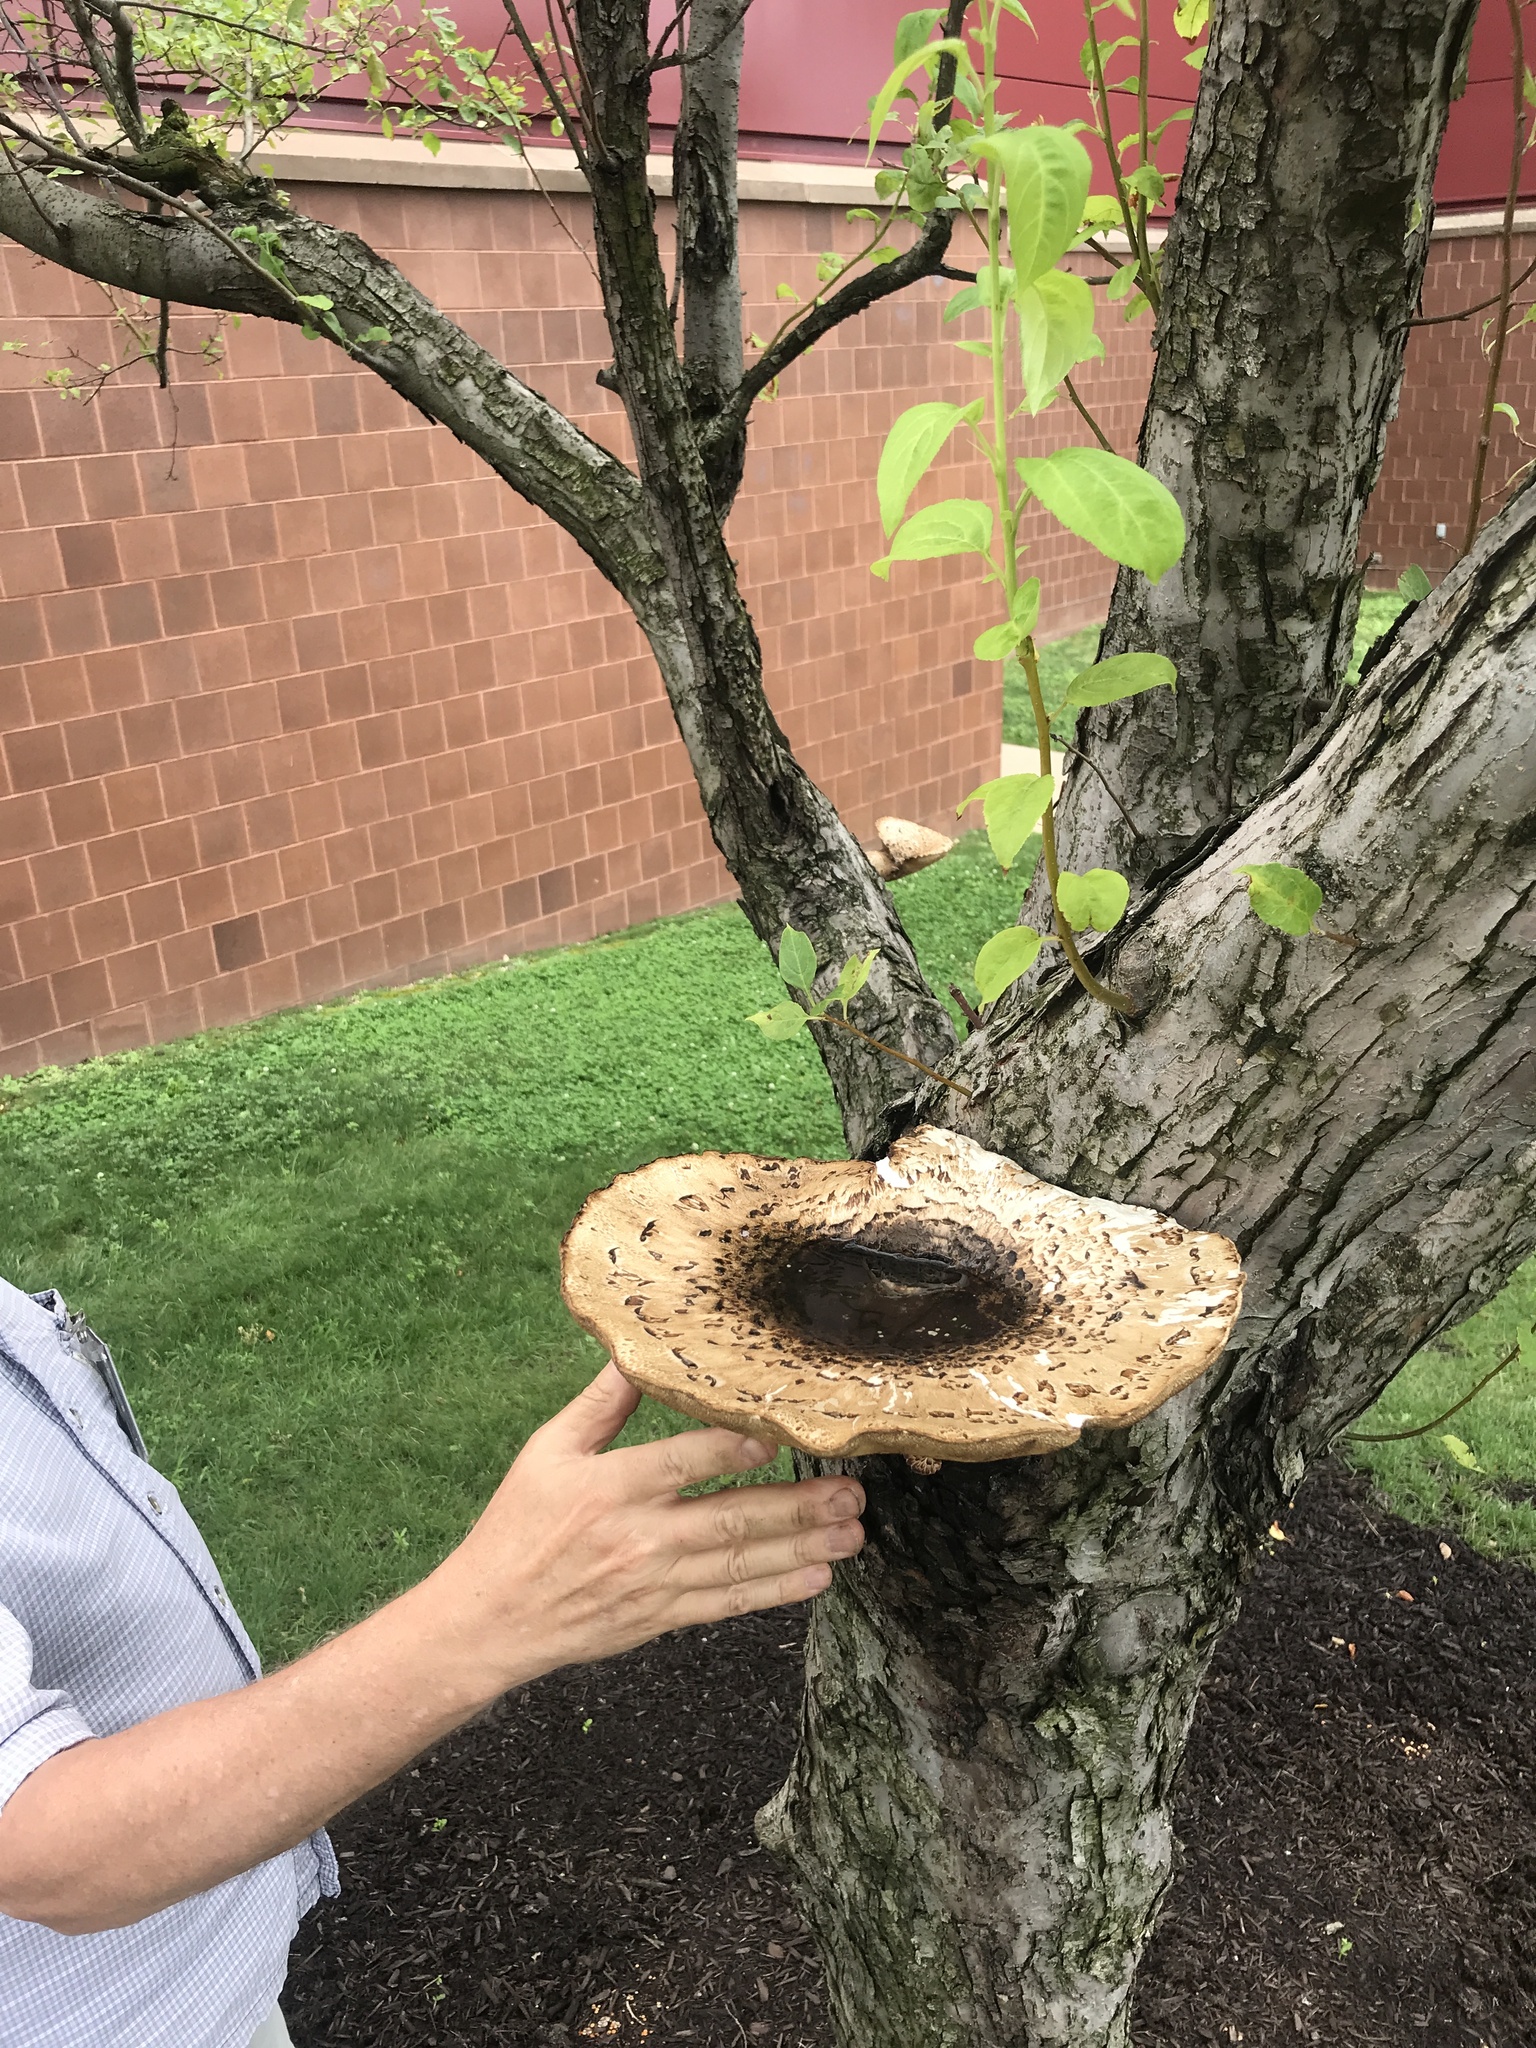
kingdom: Fungi
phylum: Basidiomycota
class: Agaricomycetes
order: Polyporales
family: Polyporaceae
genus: Cerioporus
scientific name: Cerioporus squamosus
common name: Dryad's saddle
